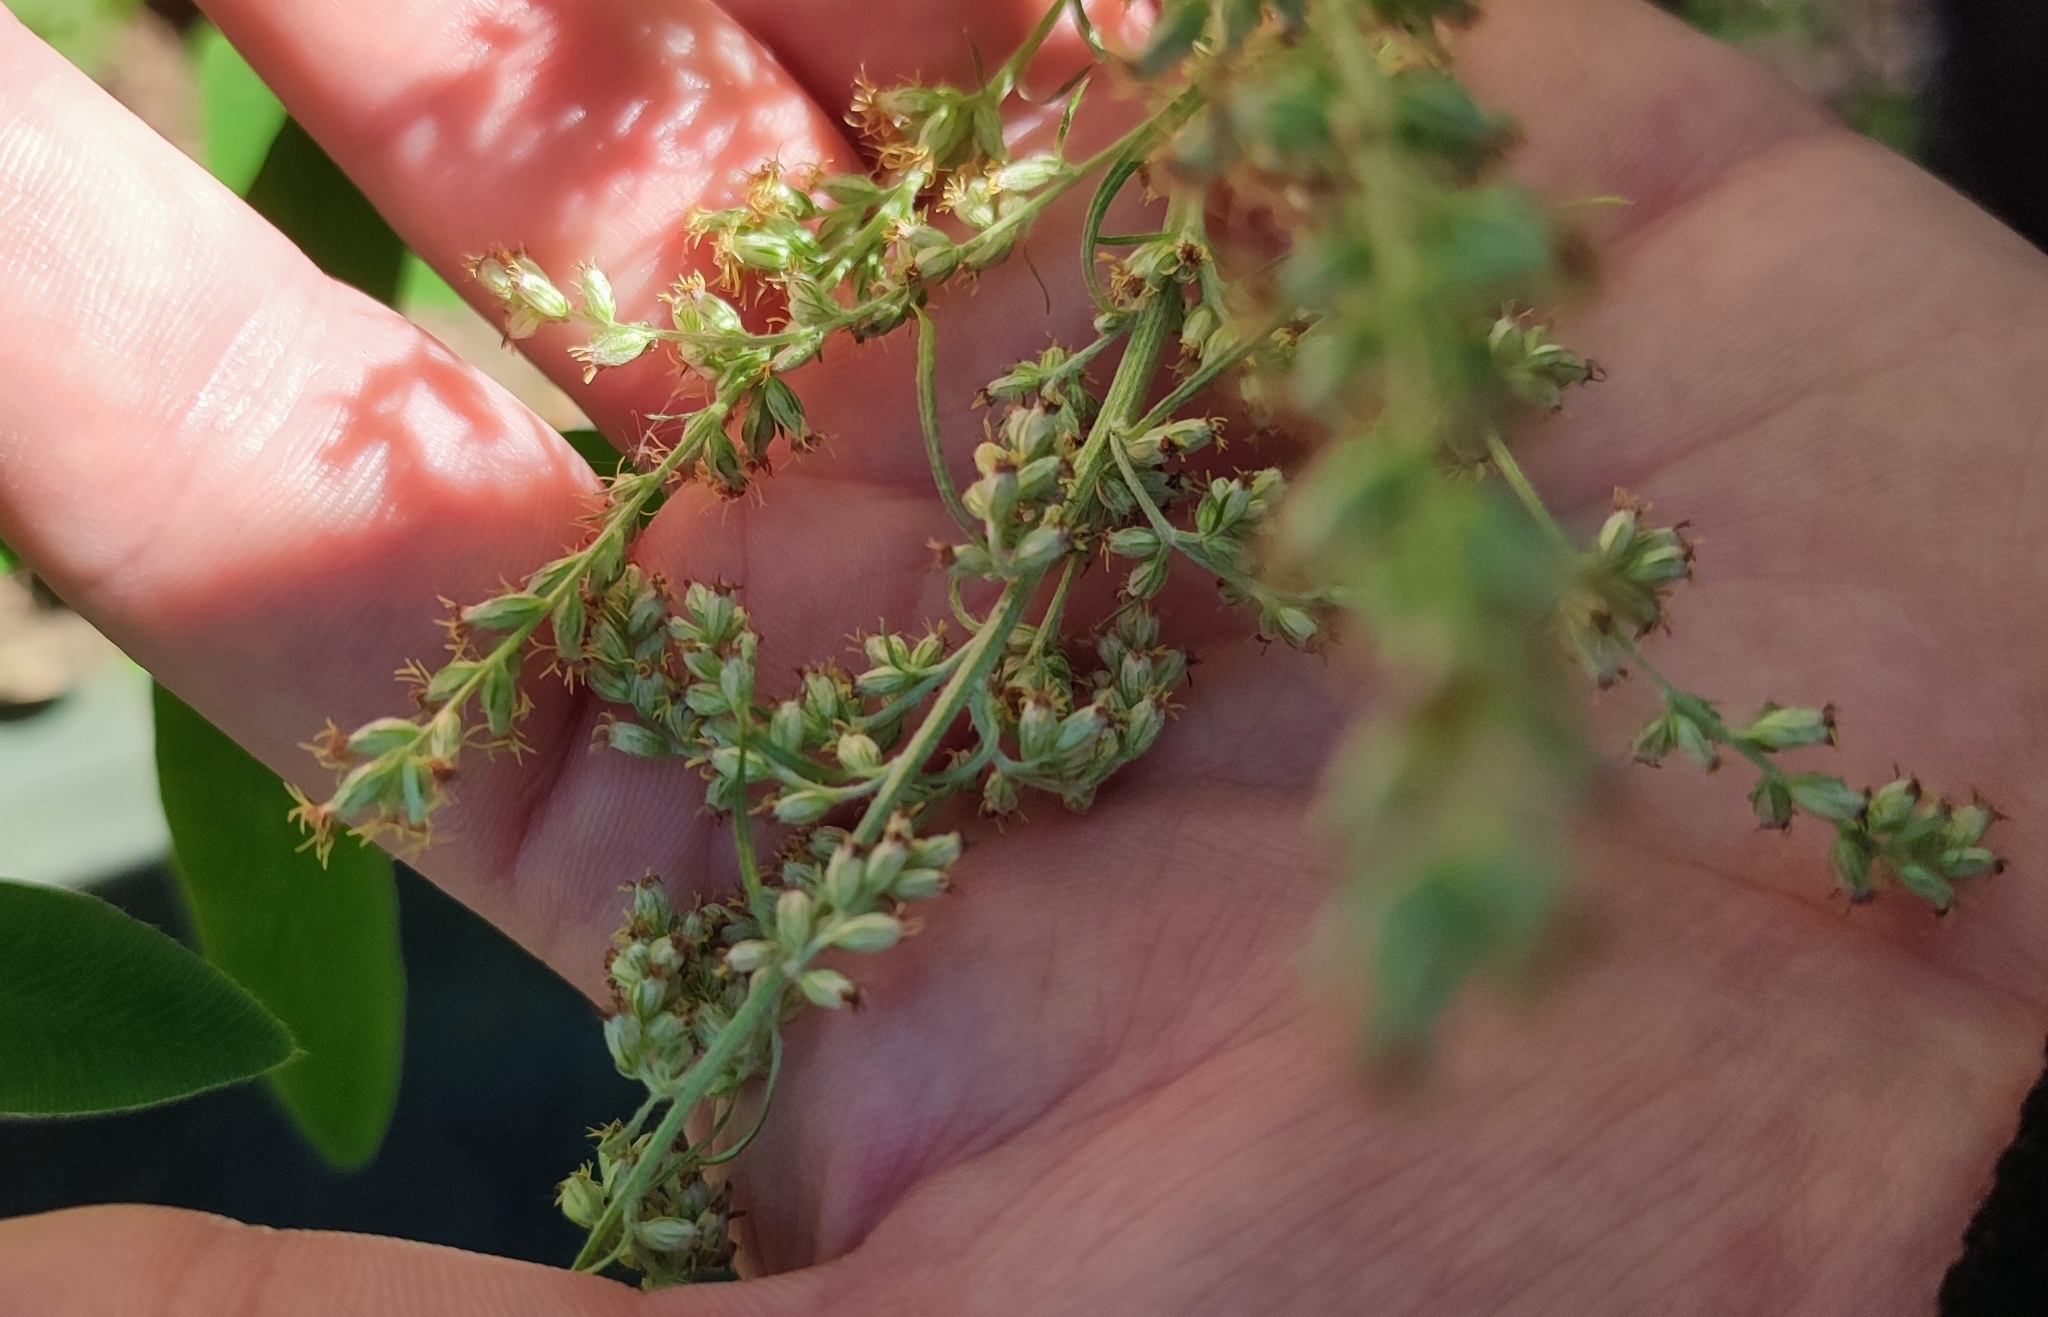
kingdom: Plantae
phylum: Tracheophyta
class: Magnoliopsida
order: Asterales
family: Asteraceae
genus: Artemisia
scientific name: Artemisia vulgaris
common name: Mugwort
